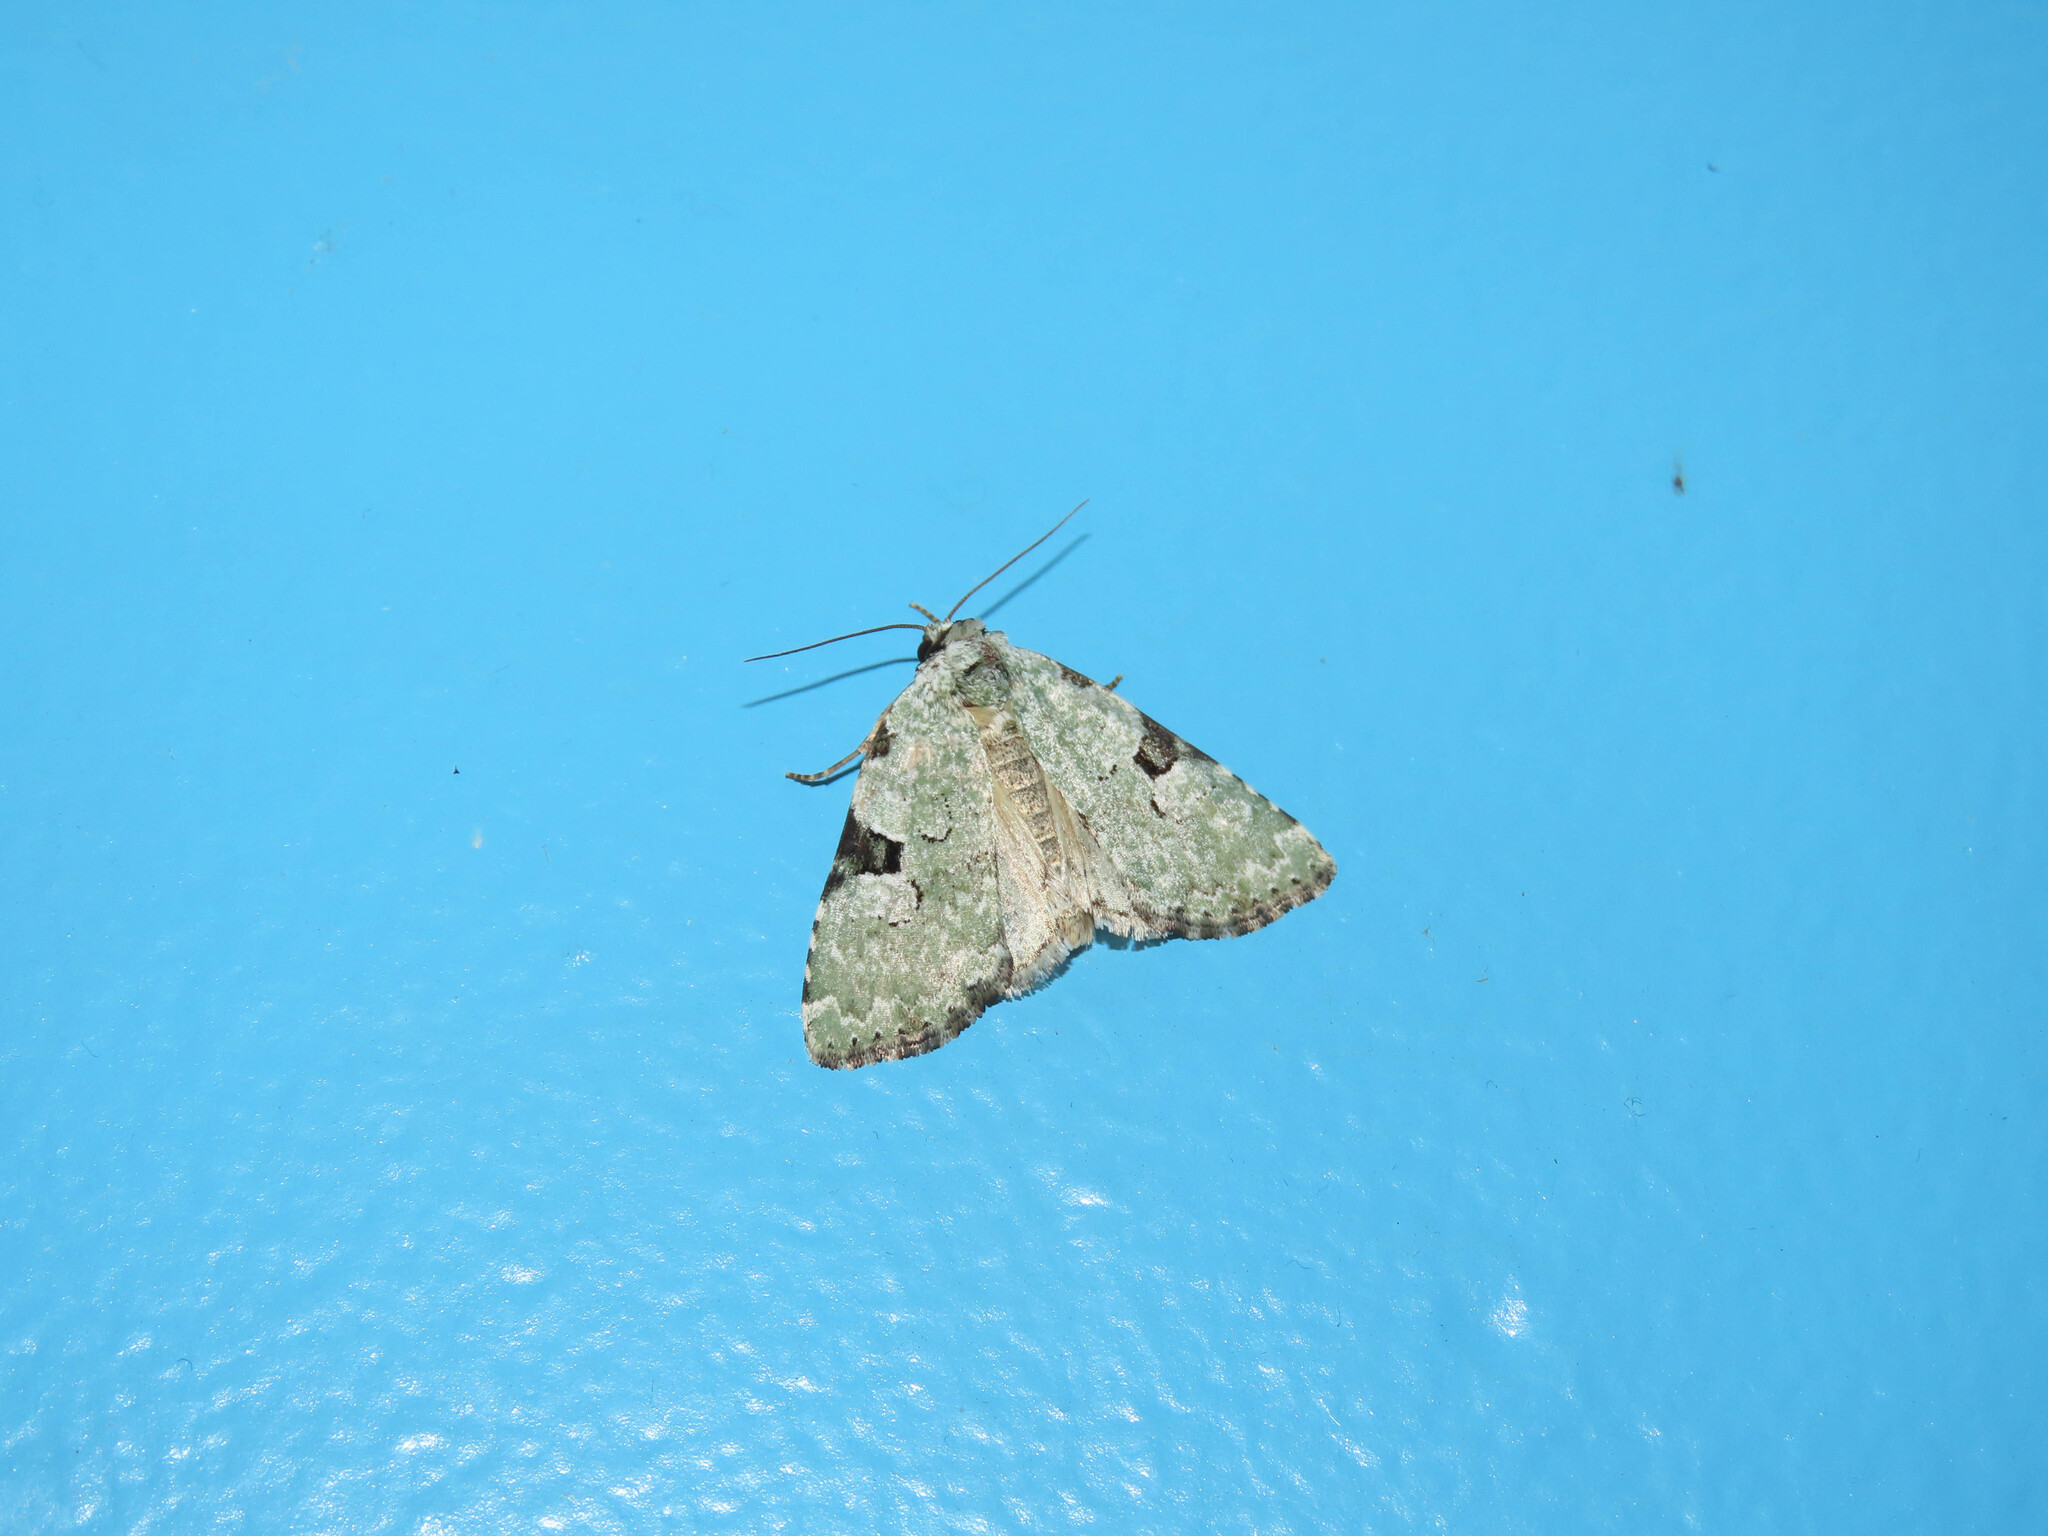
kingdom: Animalia
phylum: Arthropoda
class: Insecta
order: Lepidoptera
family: Noctuidae
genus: Leuconycta
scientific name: Leuconycta diphteroides
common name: Green leuconycta moth
